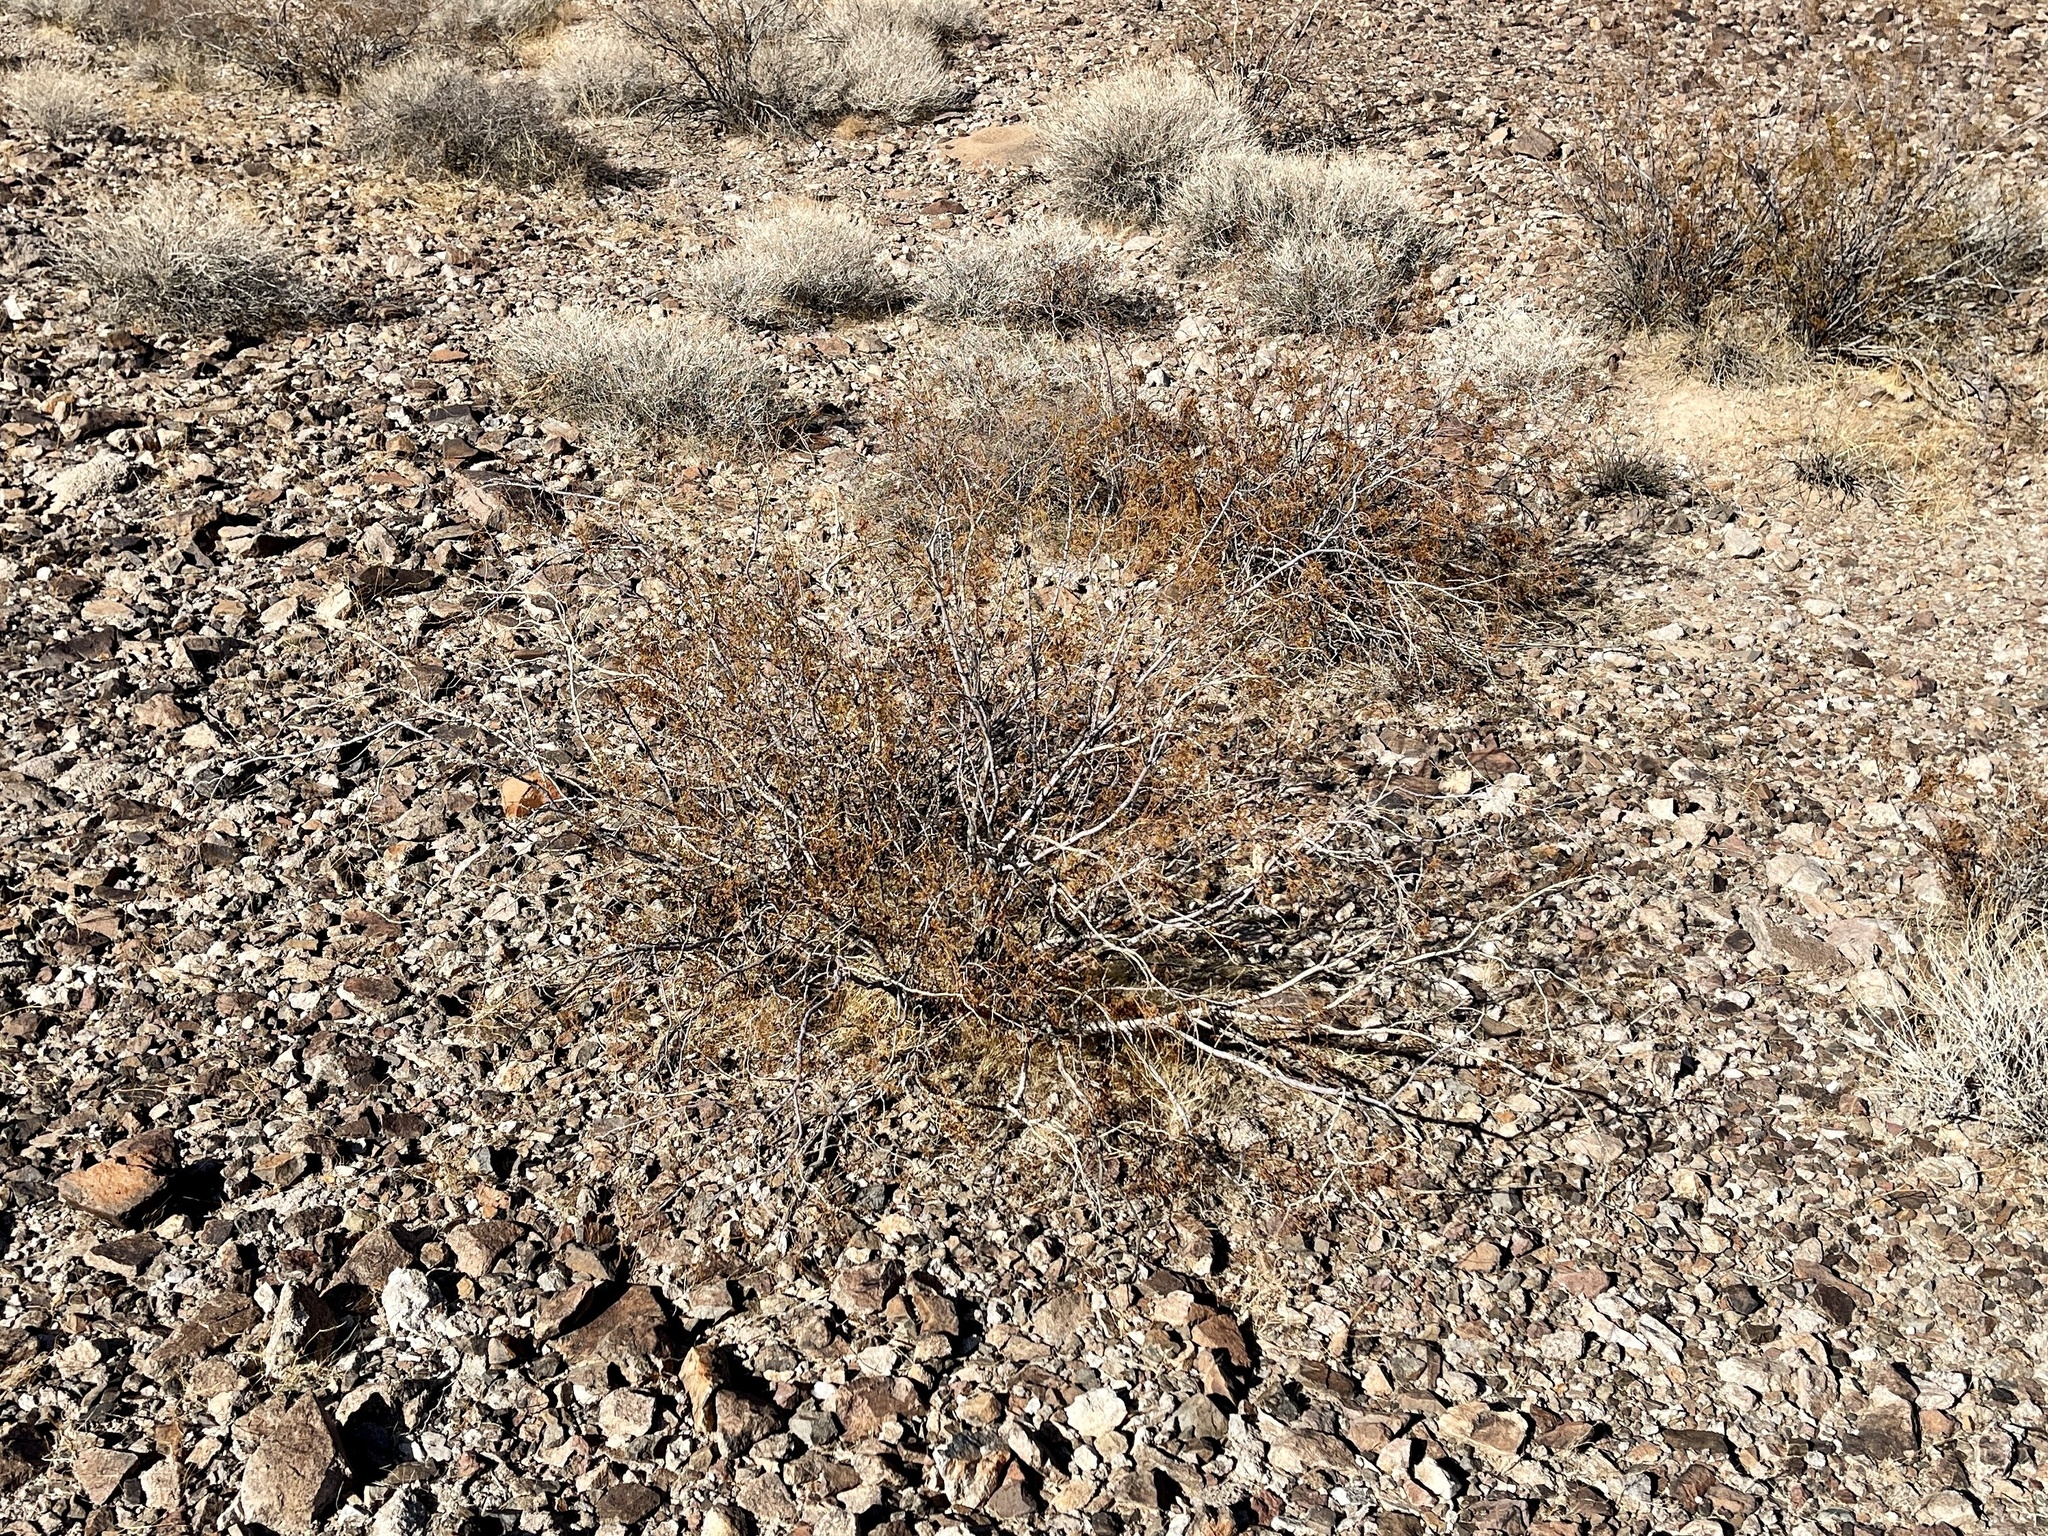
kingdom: Plantae
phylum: Tracheophyta
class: Magnoliopsida
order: Zygophyllales
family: Zygophyllaceae
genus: Larrea
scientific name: Larrea tridentata
